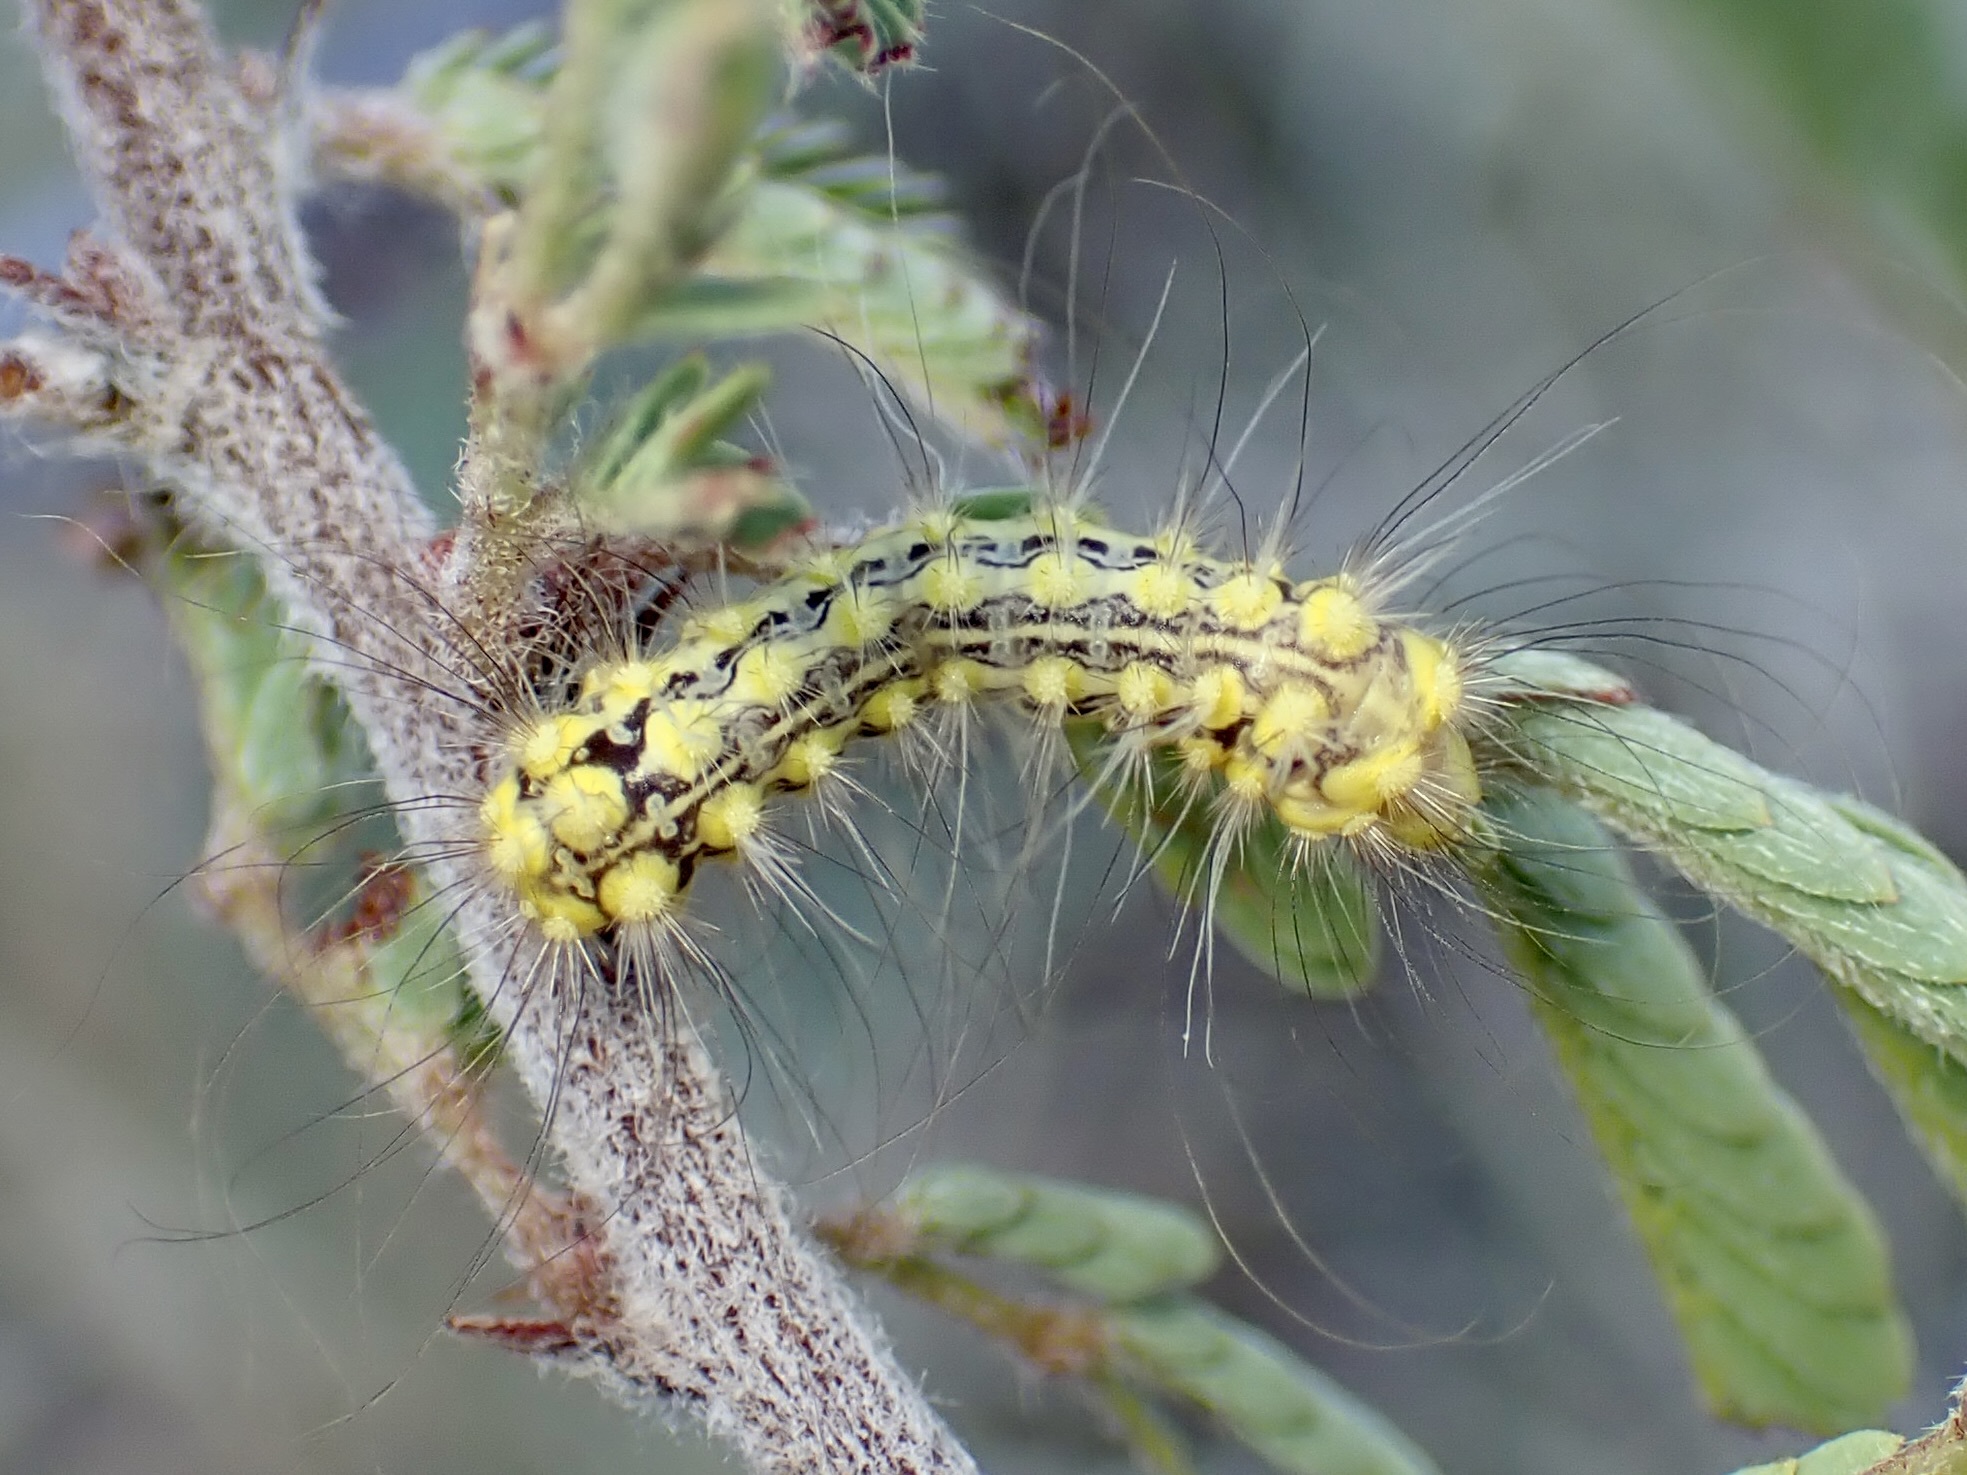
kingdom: Animalia
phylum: Arthropoda
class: Insecta
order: Lepidoptera
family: Megalopygidae
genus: Norape
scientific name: Norape tener
